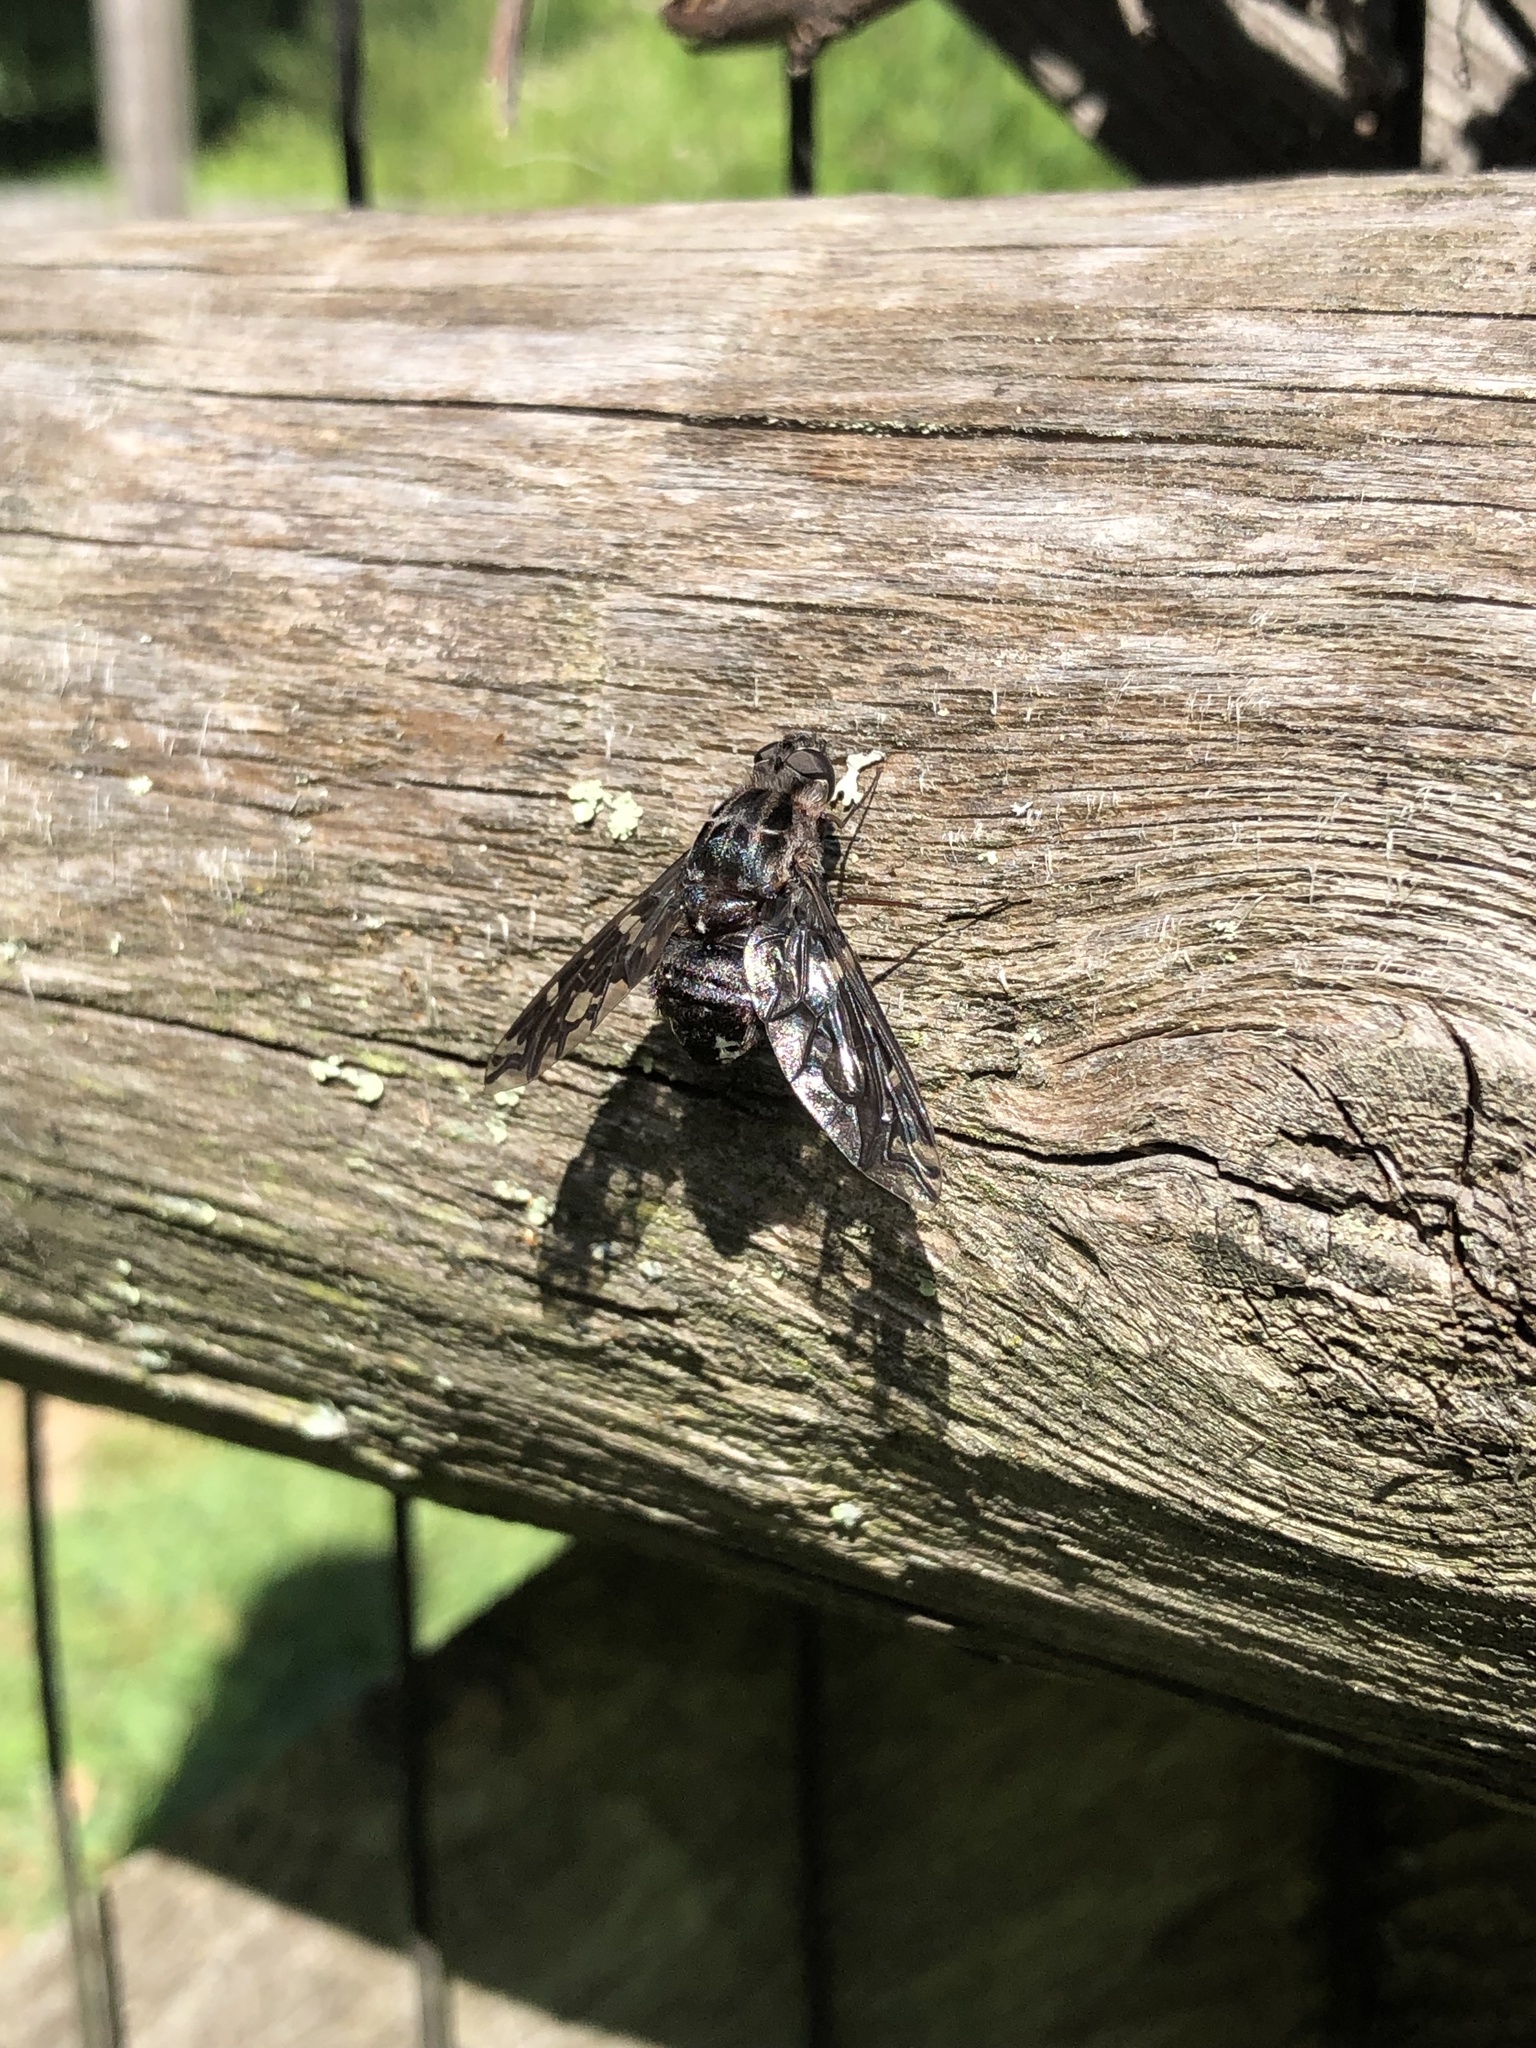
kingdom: Animalia
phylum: Arthropoda
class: Insecta
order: Diptera
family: Bombyliidae
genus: Xenox
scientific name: Xenox tigrinus
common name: Tiger bee fly
